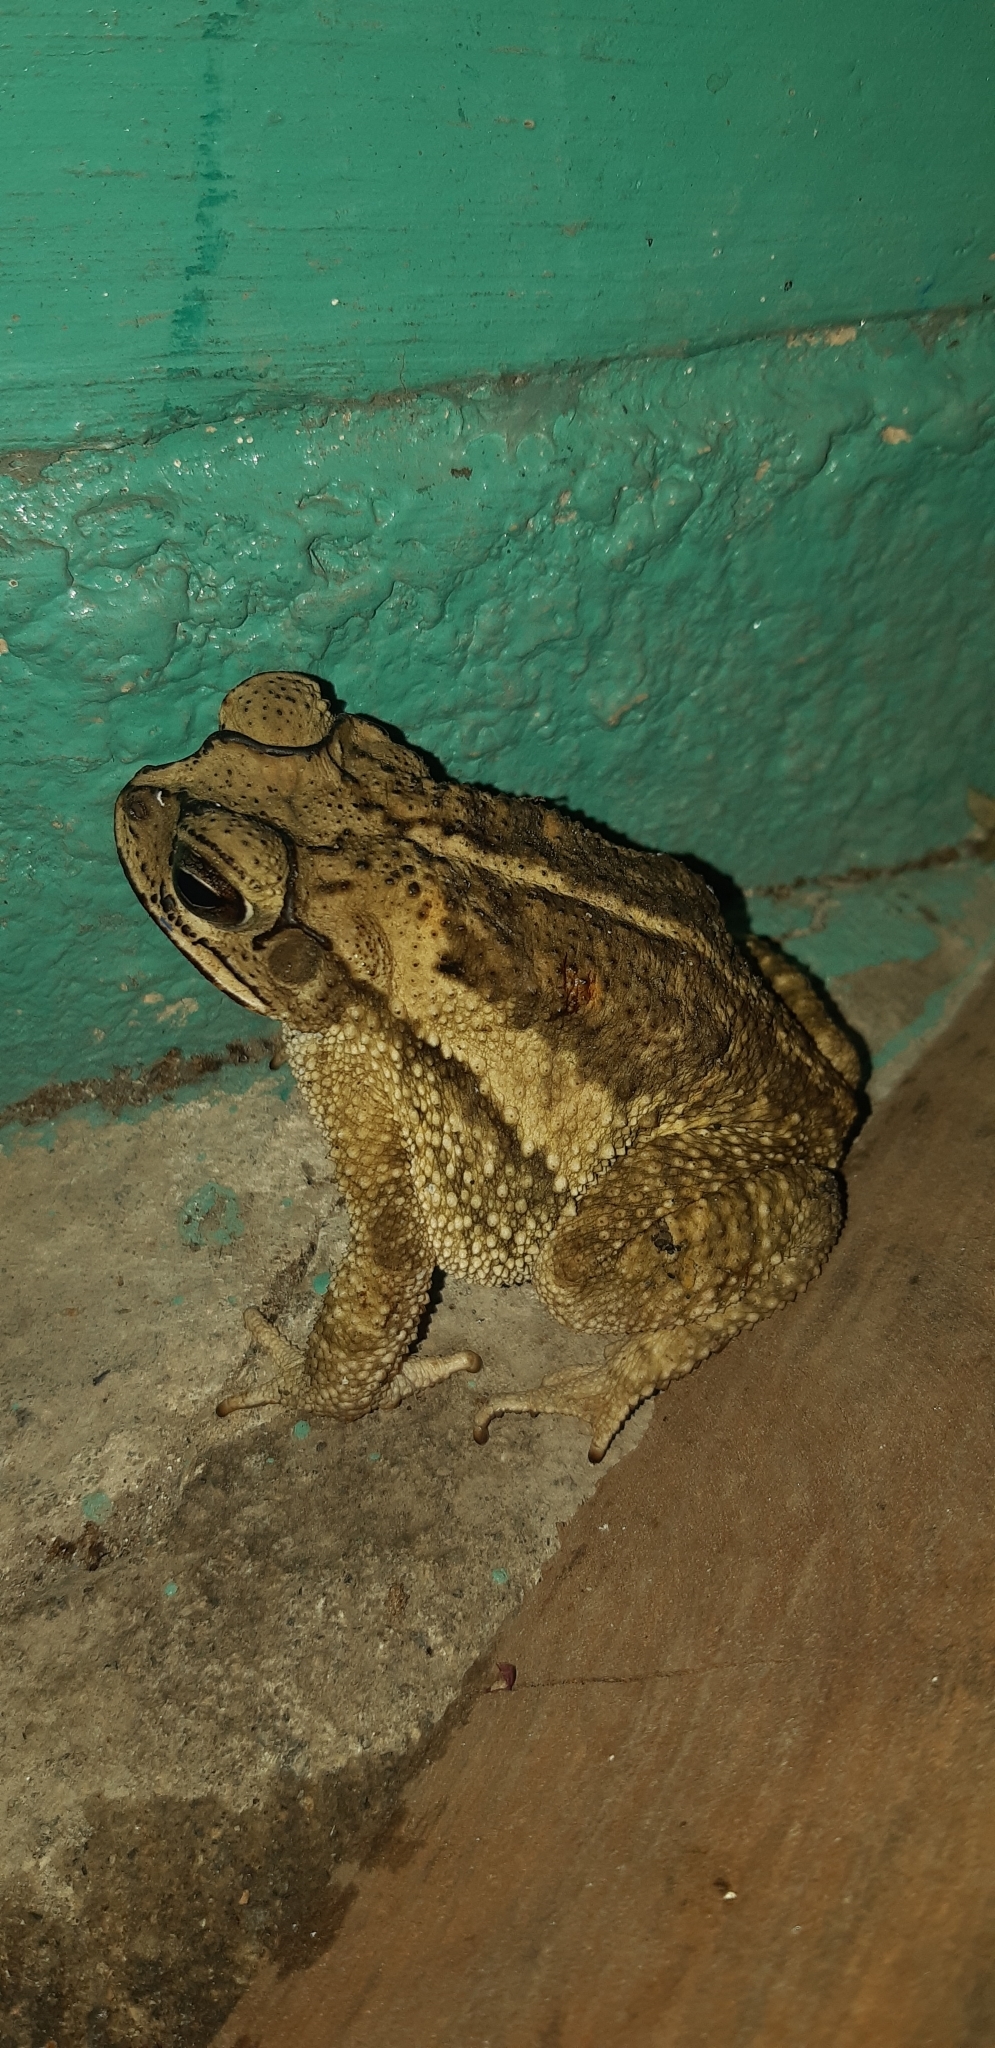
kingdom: Animalia
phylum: Chordata
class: Amphibia
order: Anura
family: Bufonidae
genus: Incilius
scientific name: Incilius luetkenii
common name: Yellow toad
